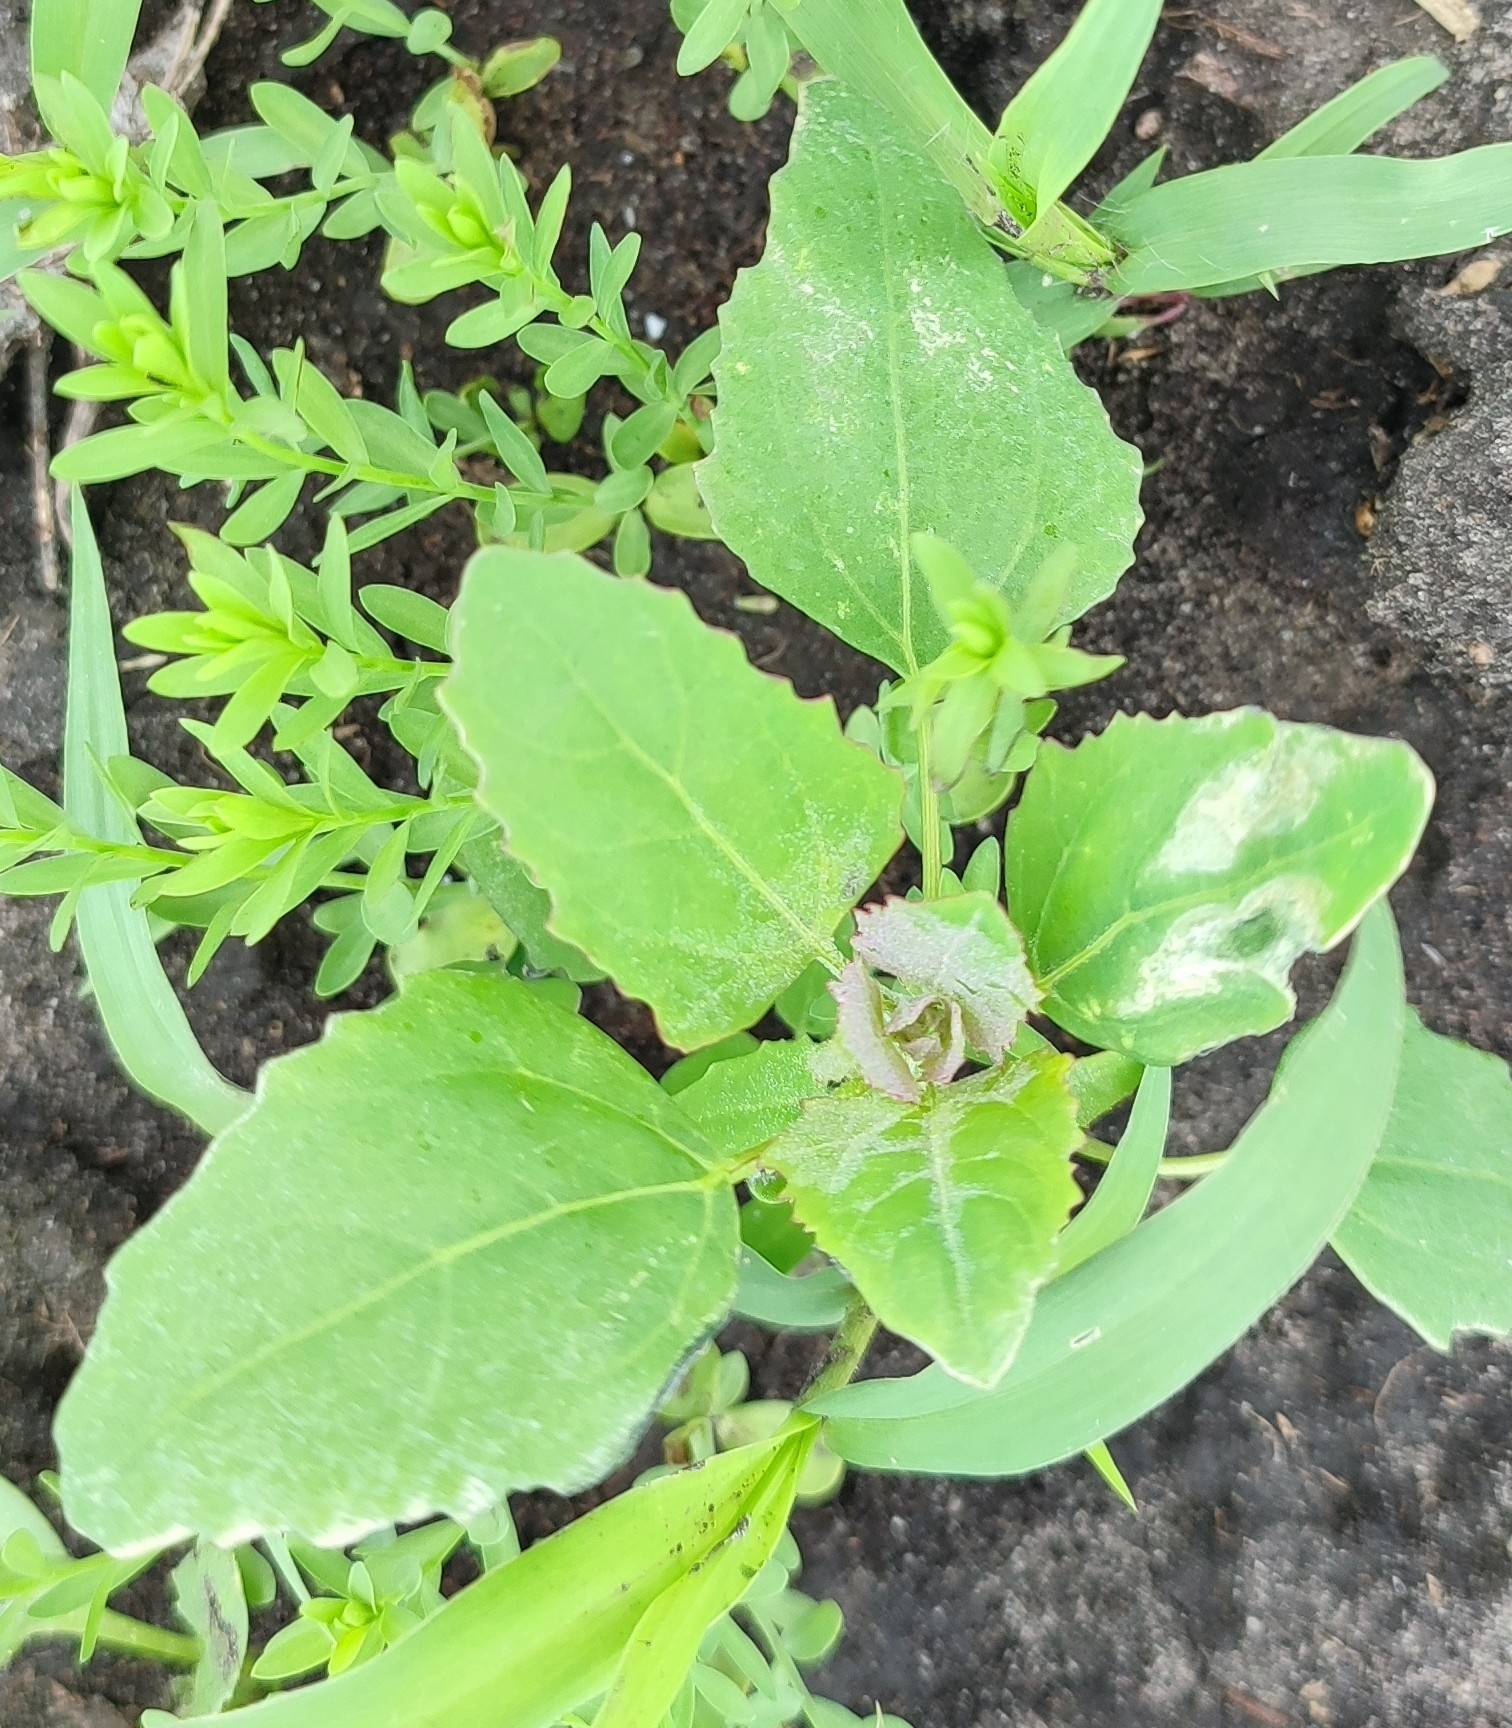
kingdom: Plantae
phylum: Tracheophyta
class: Magnoliopsida
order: Caryophyllales
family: Amaranthaceae
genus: Chenopodium
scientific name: Chenopodium album
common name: Fat-hen
